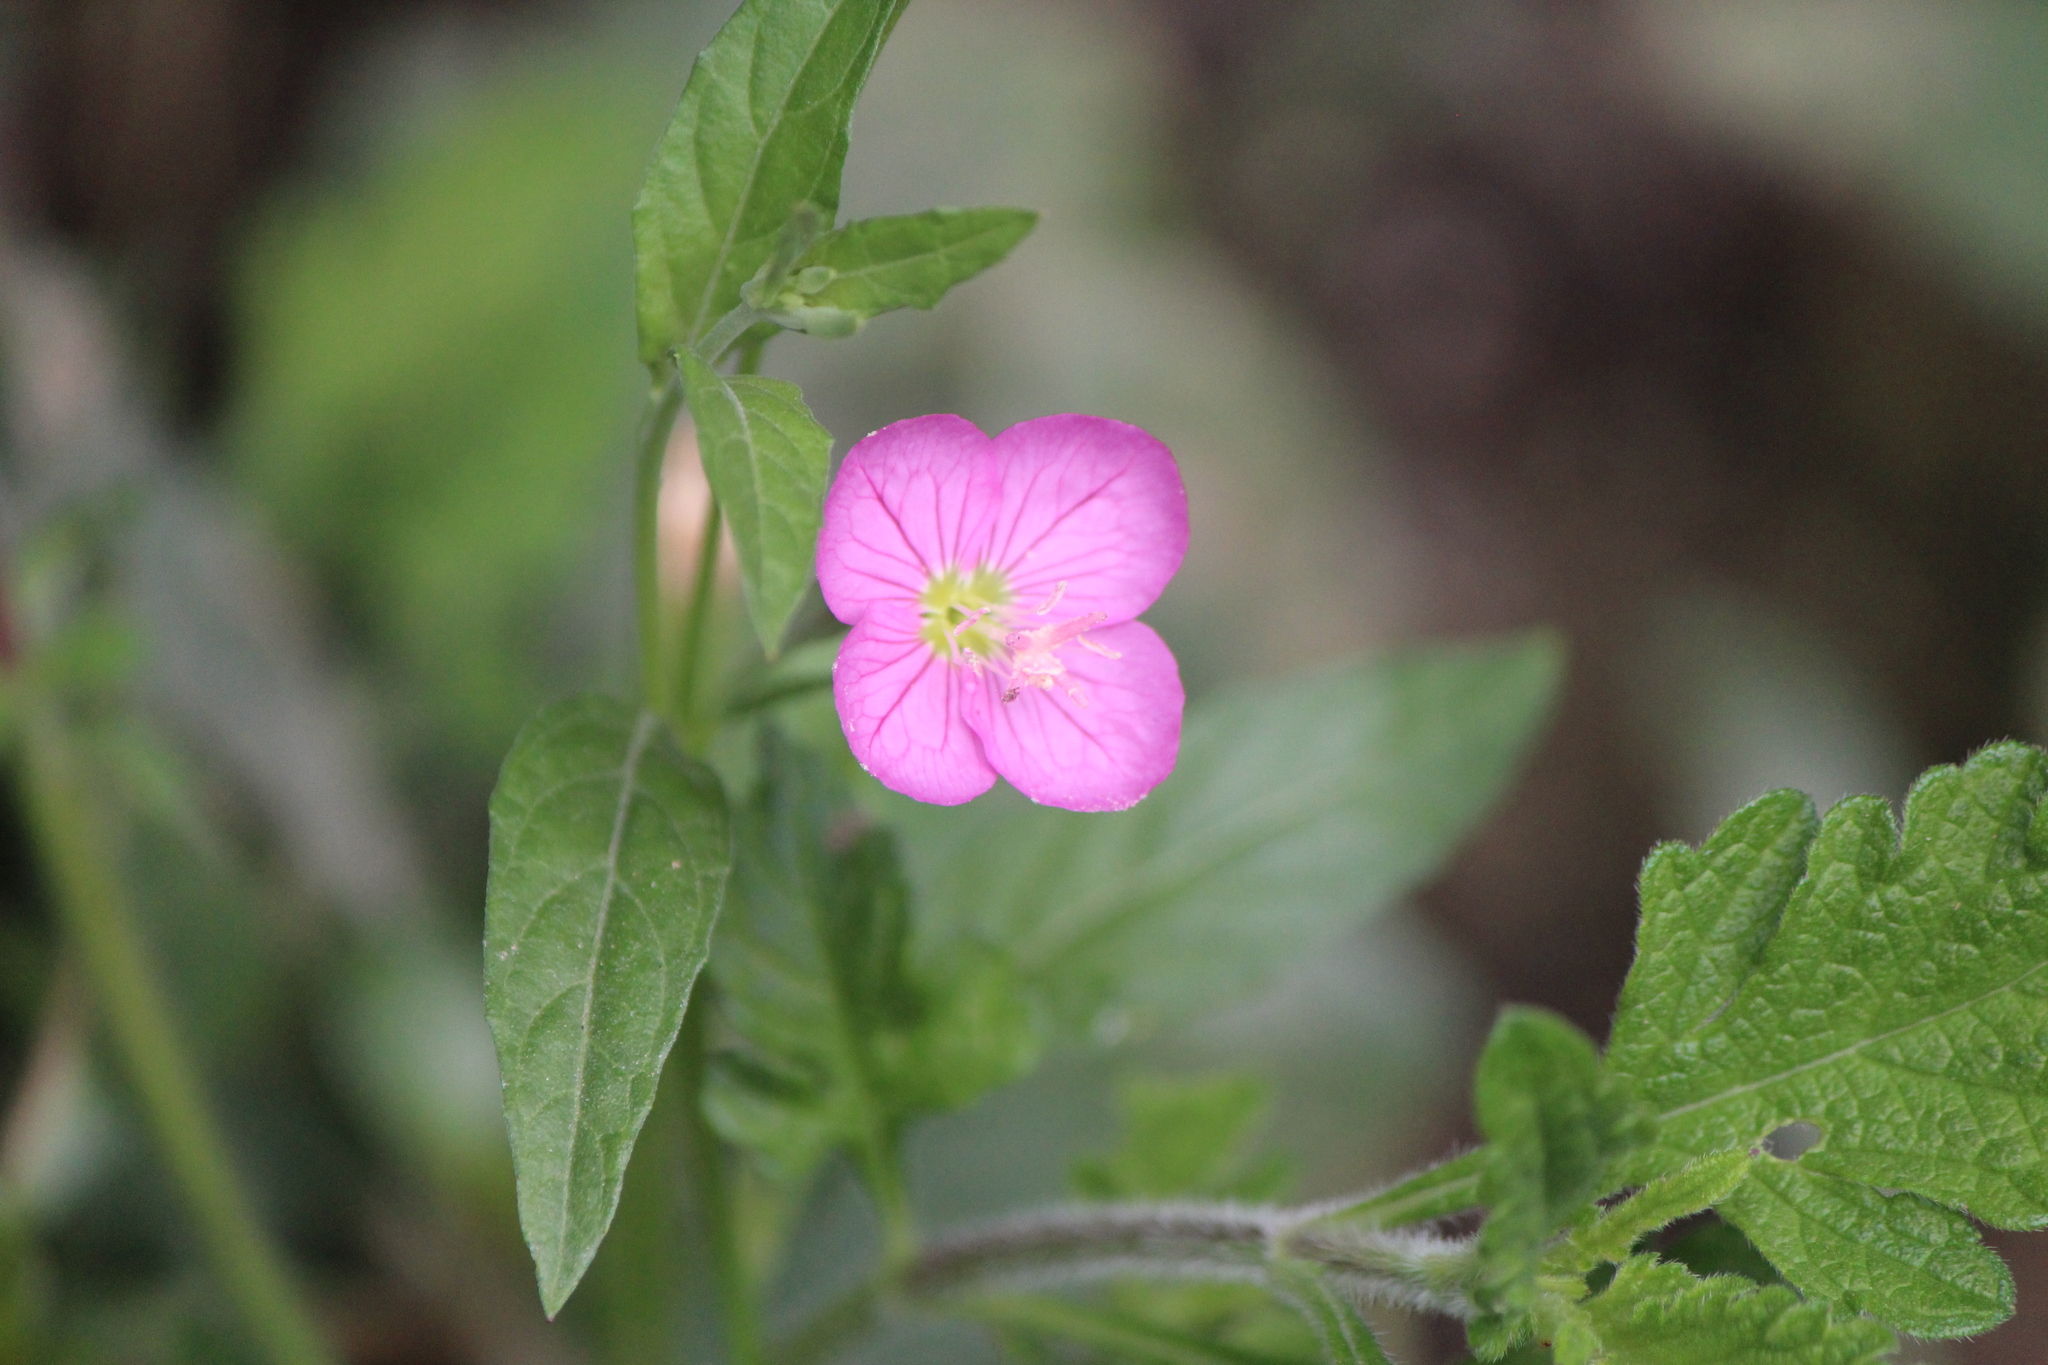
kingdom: Plantae
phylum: Tracheophyta
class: Magnoliopsida
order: Myrtales
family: Onagraceae
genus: Oenothera
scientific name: Oenothera rosea
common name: Rosy evening-primrose
